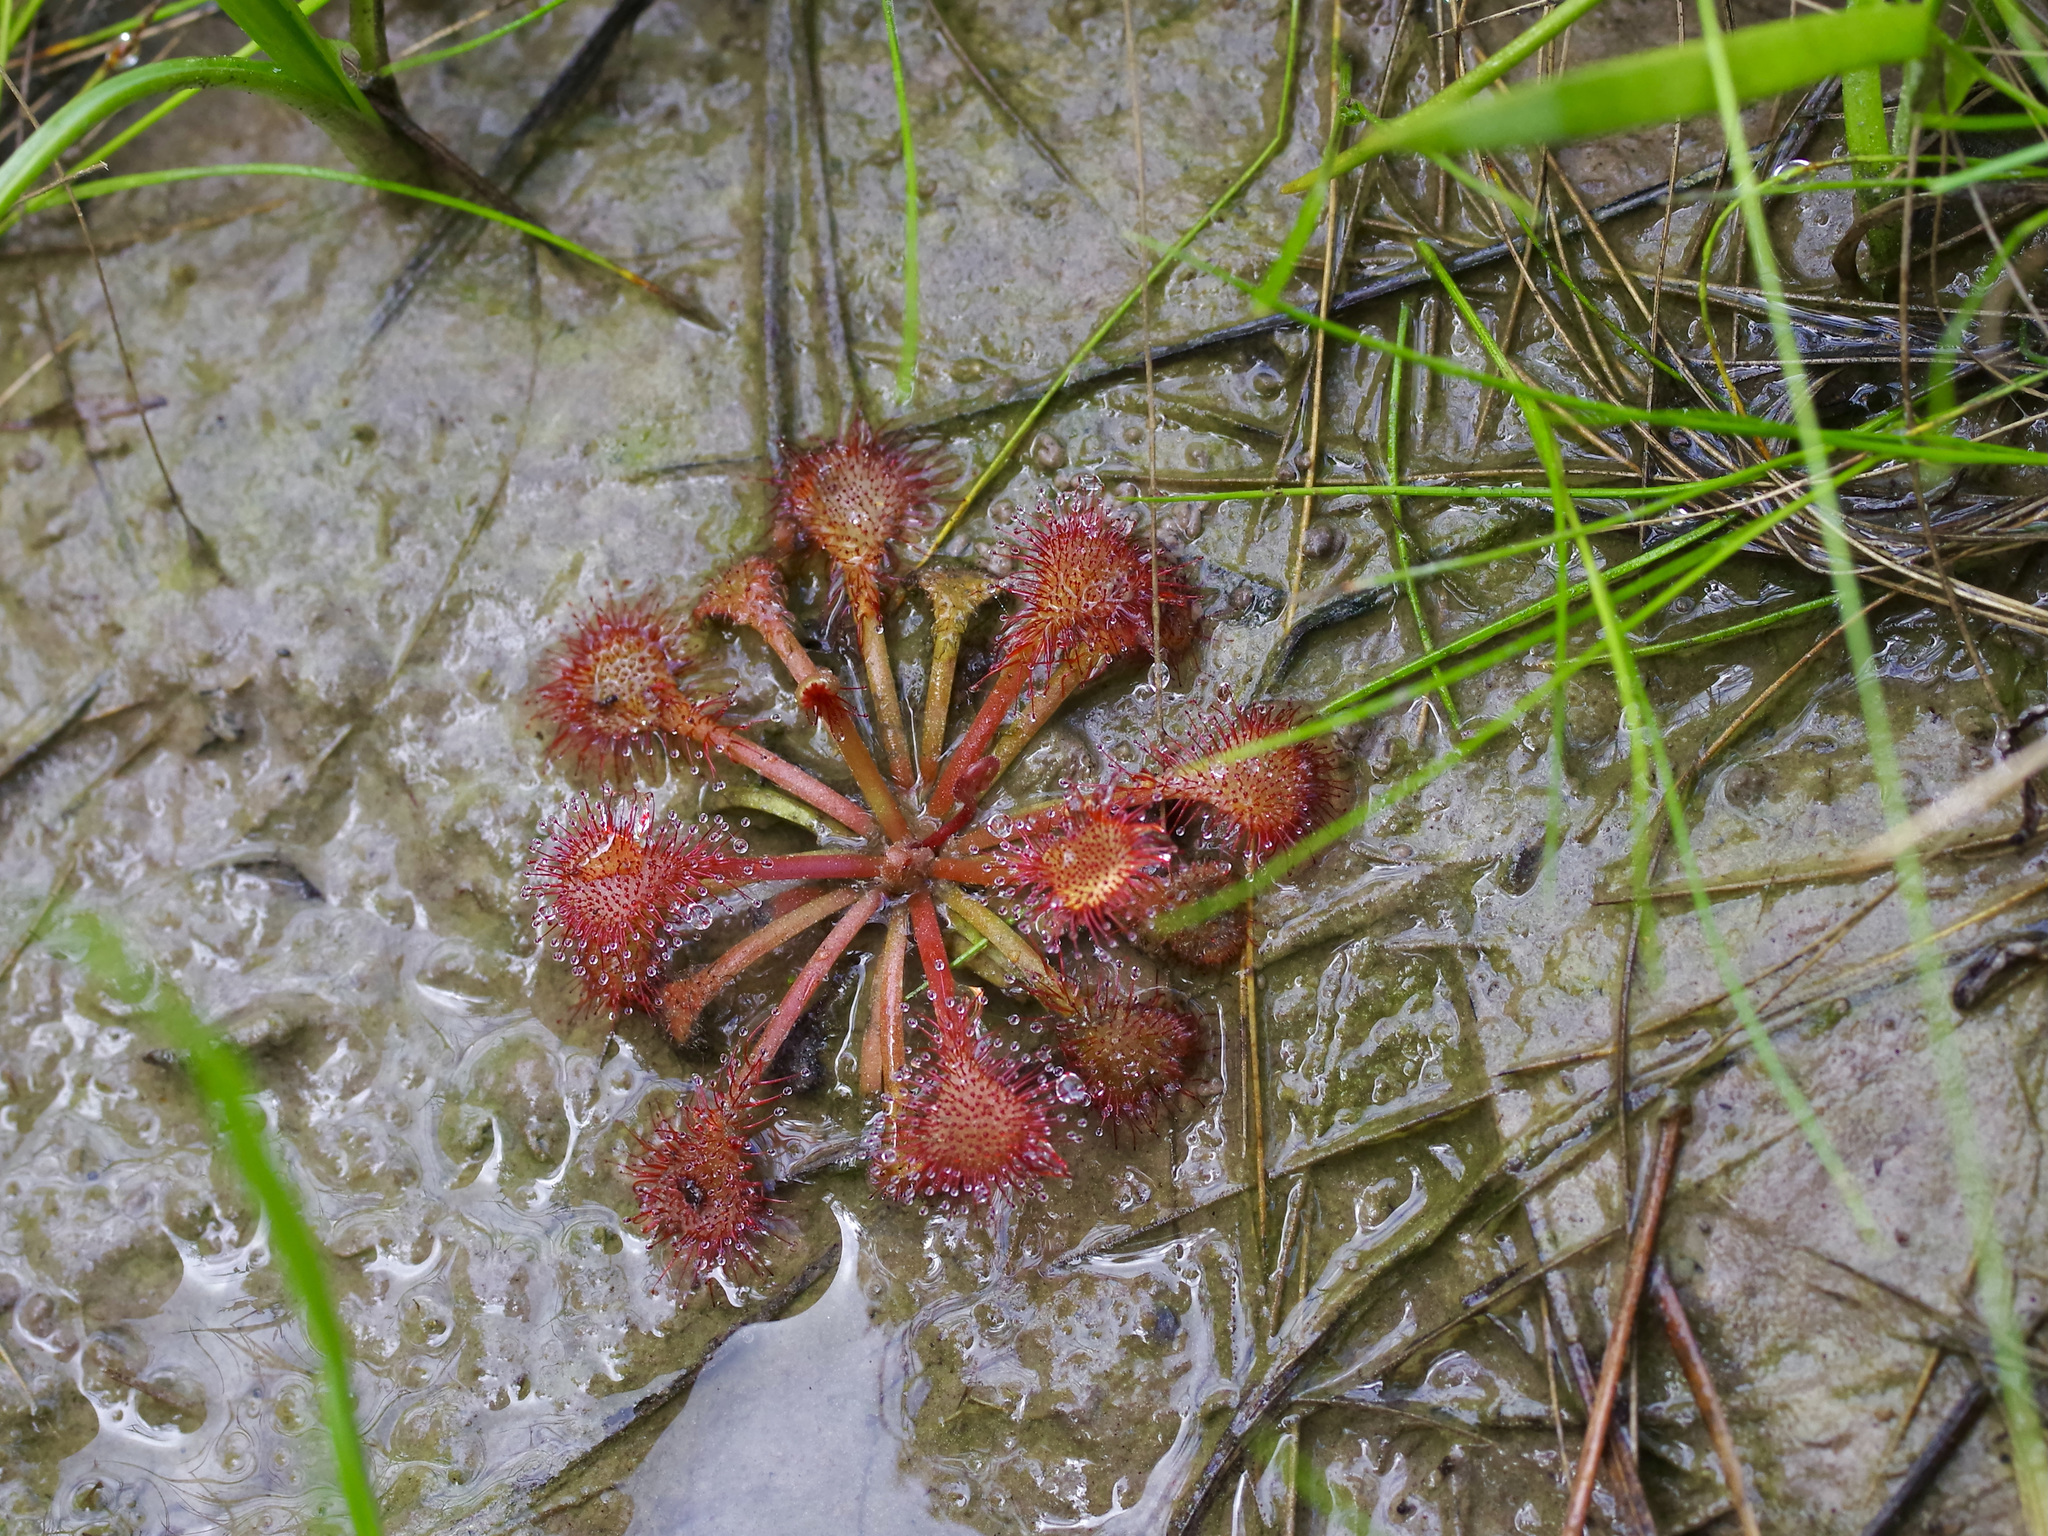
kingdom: Plantae
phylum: Tracheophyta
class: Magnoliopsida
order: Caryophyllales
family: Droseraceae
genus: Drosera
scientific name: Drosera capillaris
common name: Pink sundew
